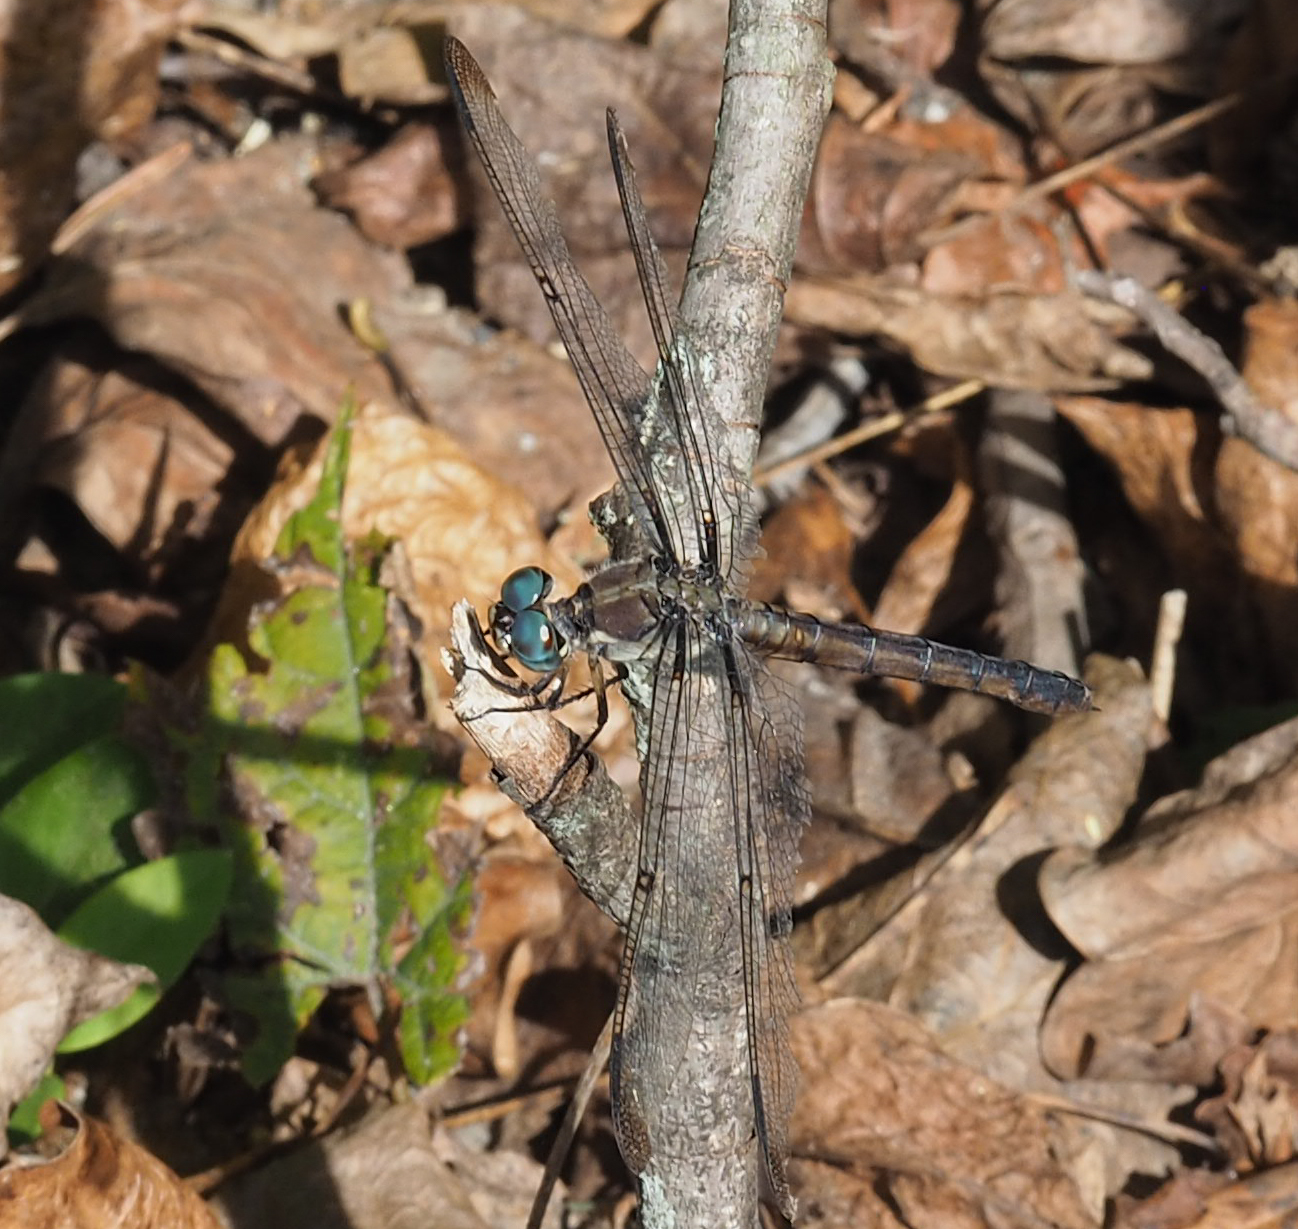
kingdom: Animalia
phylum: Arthropoda
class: Insecta
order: Odonata
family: Libellulidae
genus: Libellula
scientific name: Libellula vibrans
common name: Great blue skimmer
